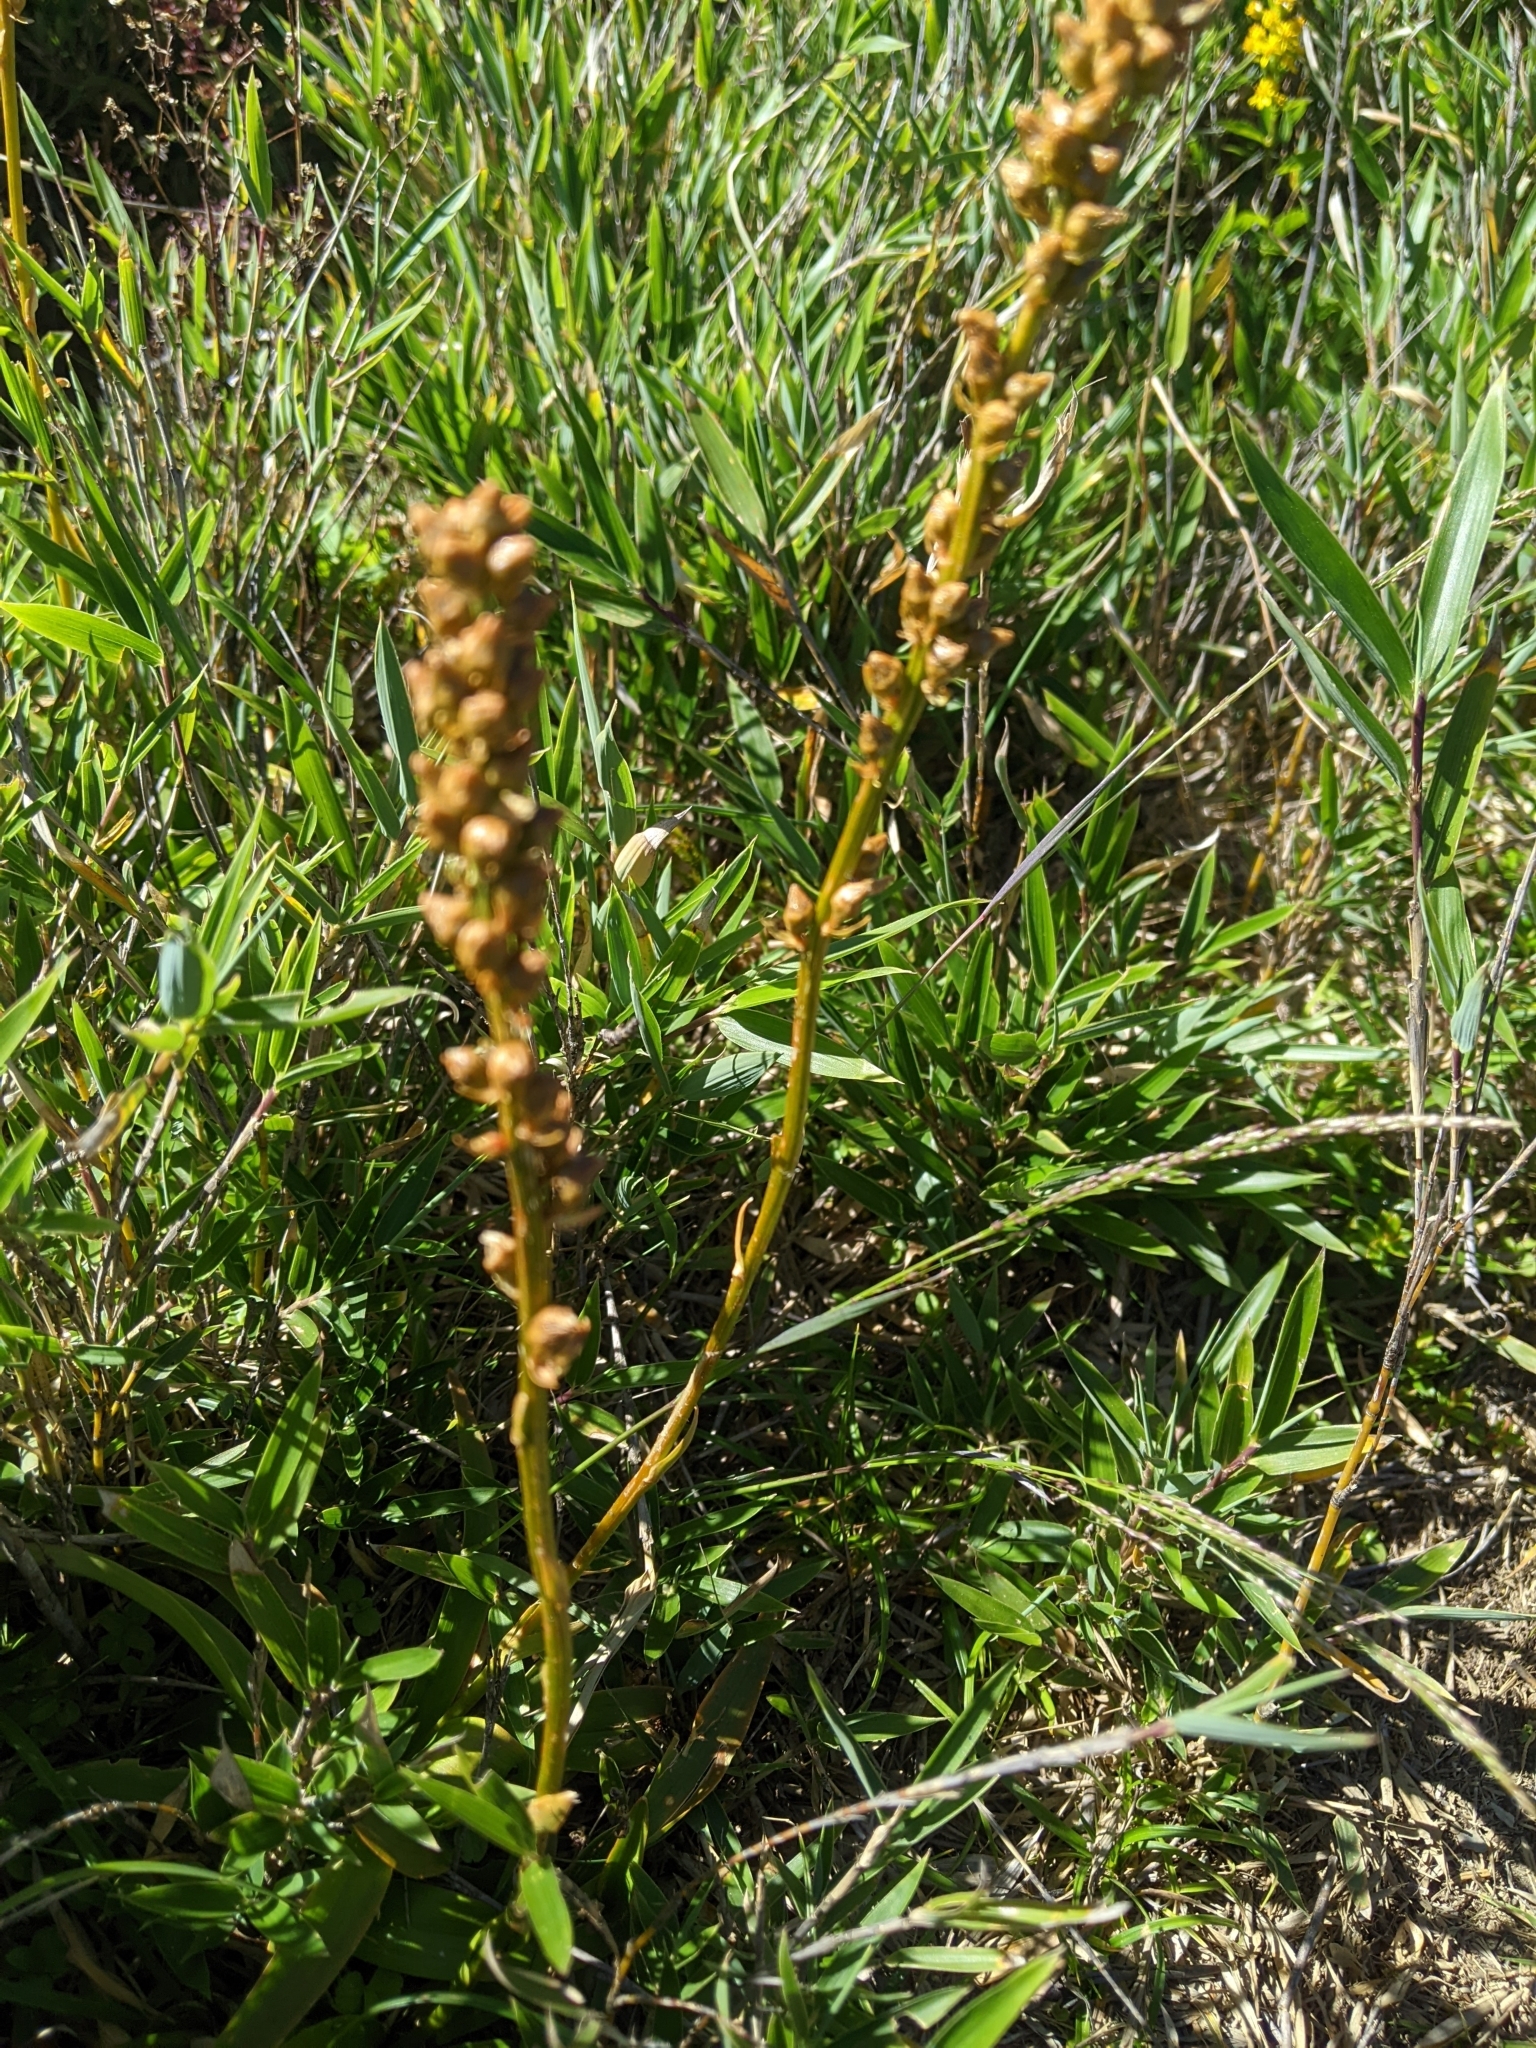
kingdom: Plantae
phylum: Tracheophyta
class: Liliopsida
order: Dioscoreales
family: Nartheciaceae
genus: Aletris
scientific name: Aletris glabra
